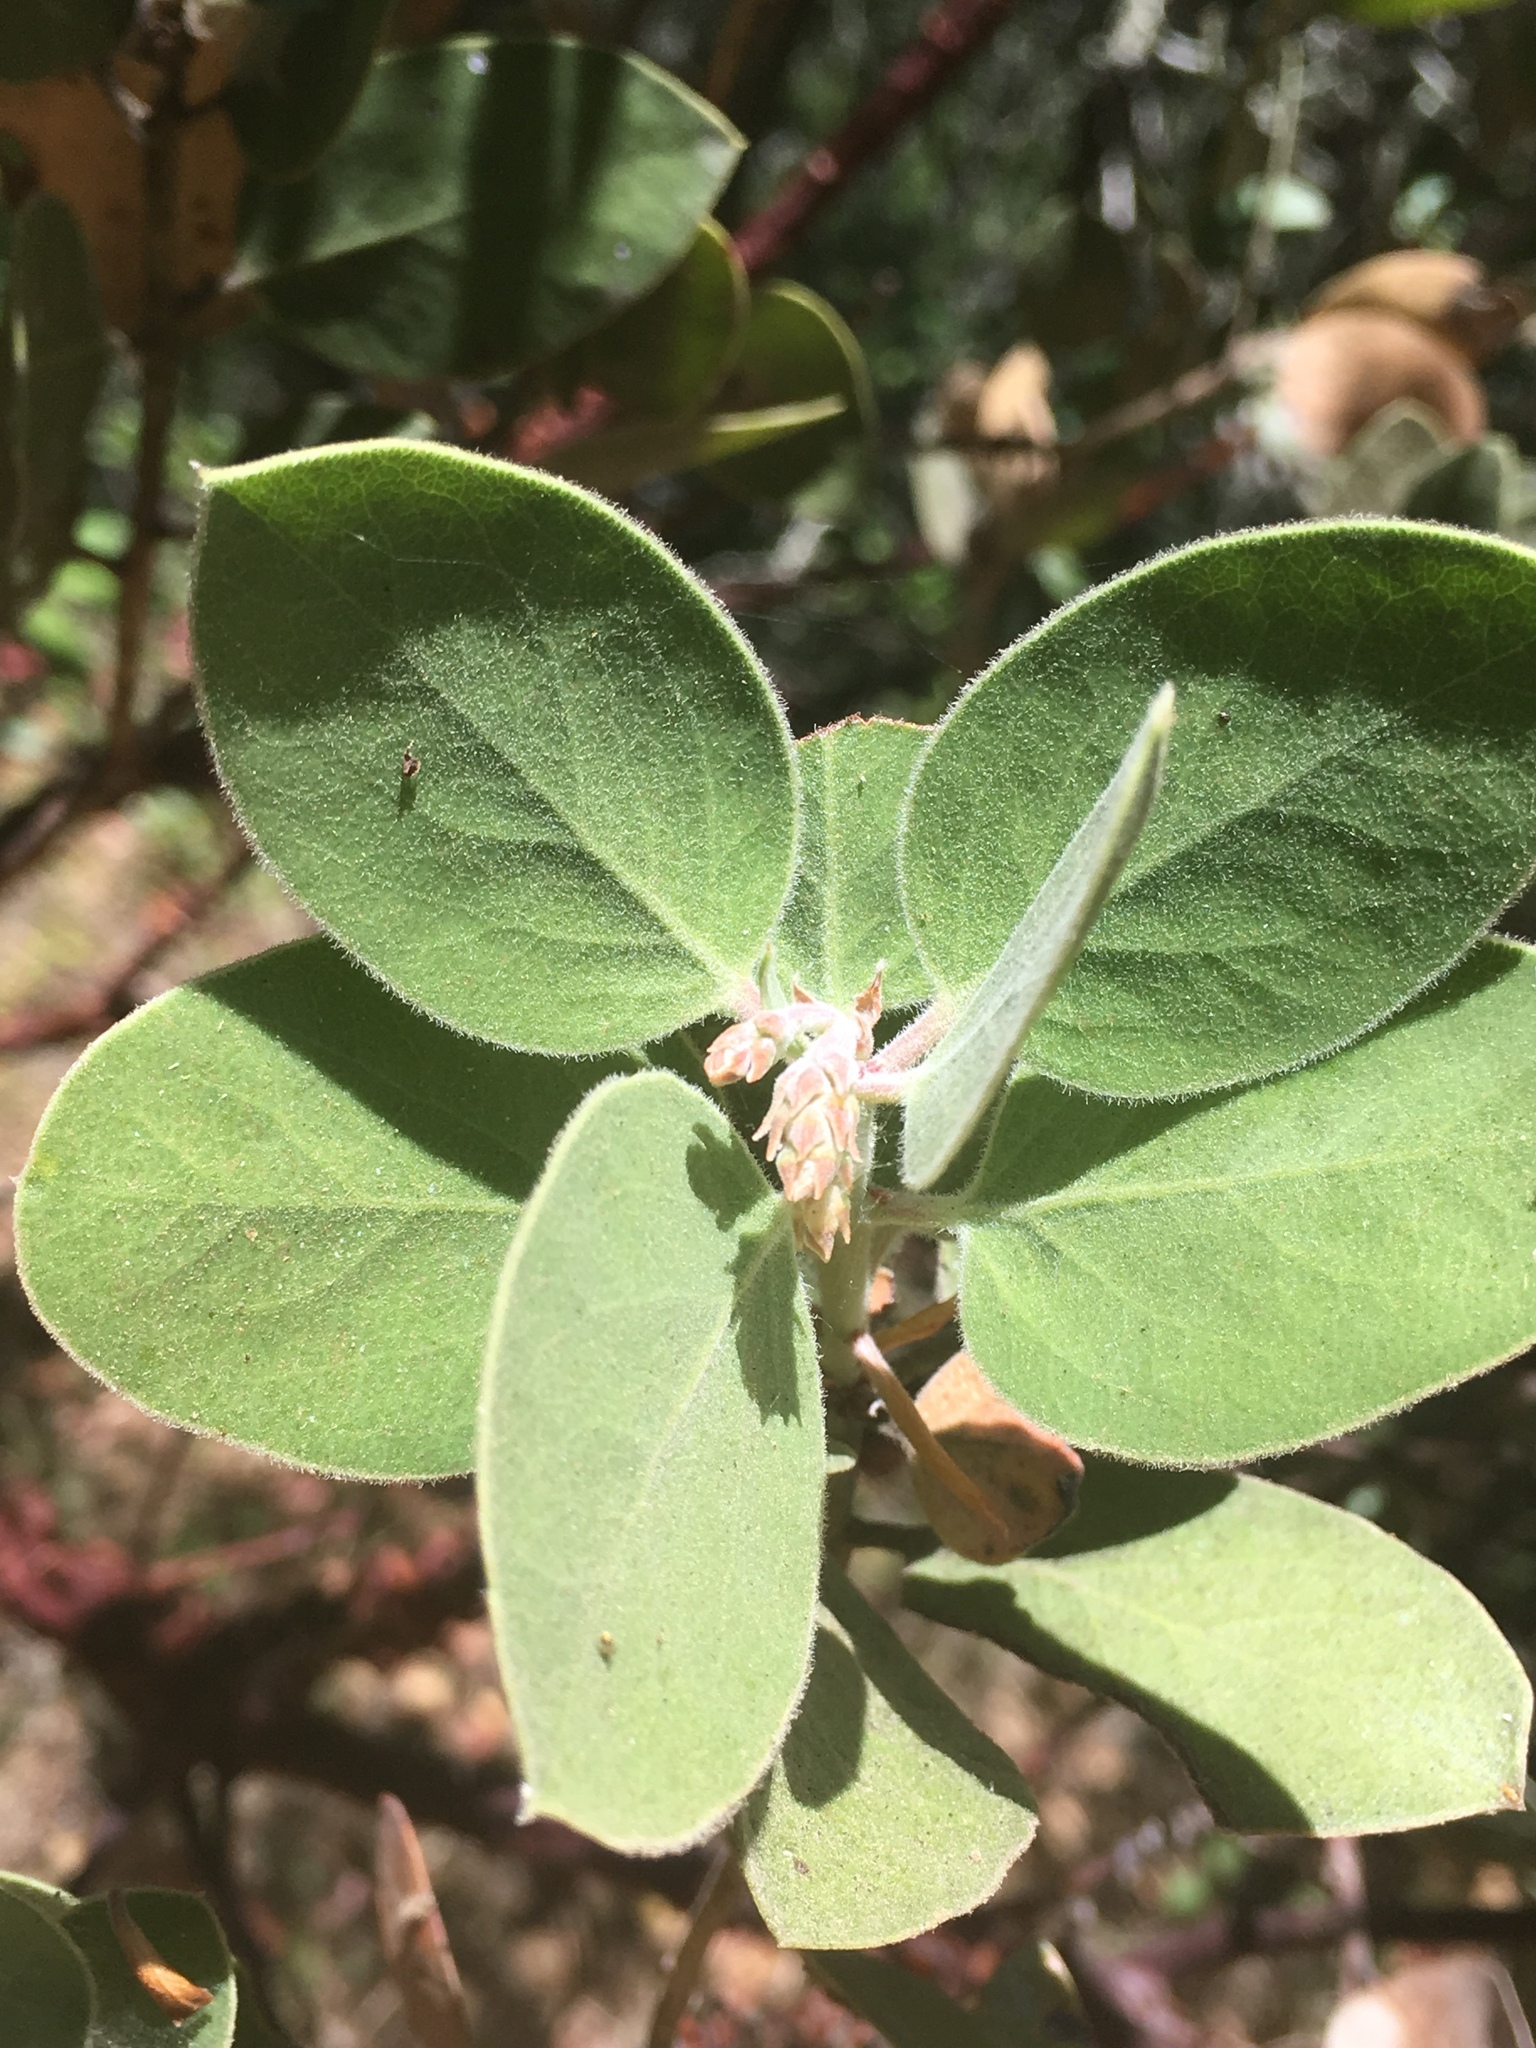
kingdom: Plantae
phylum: Tracheophyta
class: Magnoliopsida
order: Ericales
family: Ericaceae
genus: Arctostaphylos
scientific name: Arctostaphylos glandulosa
